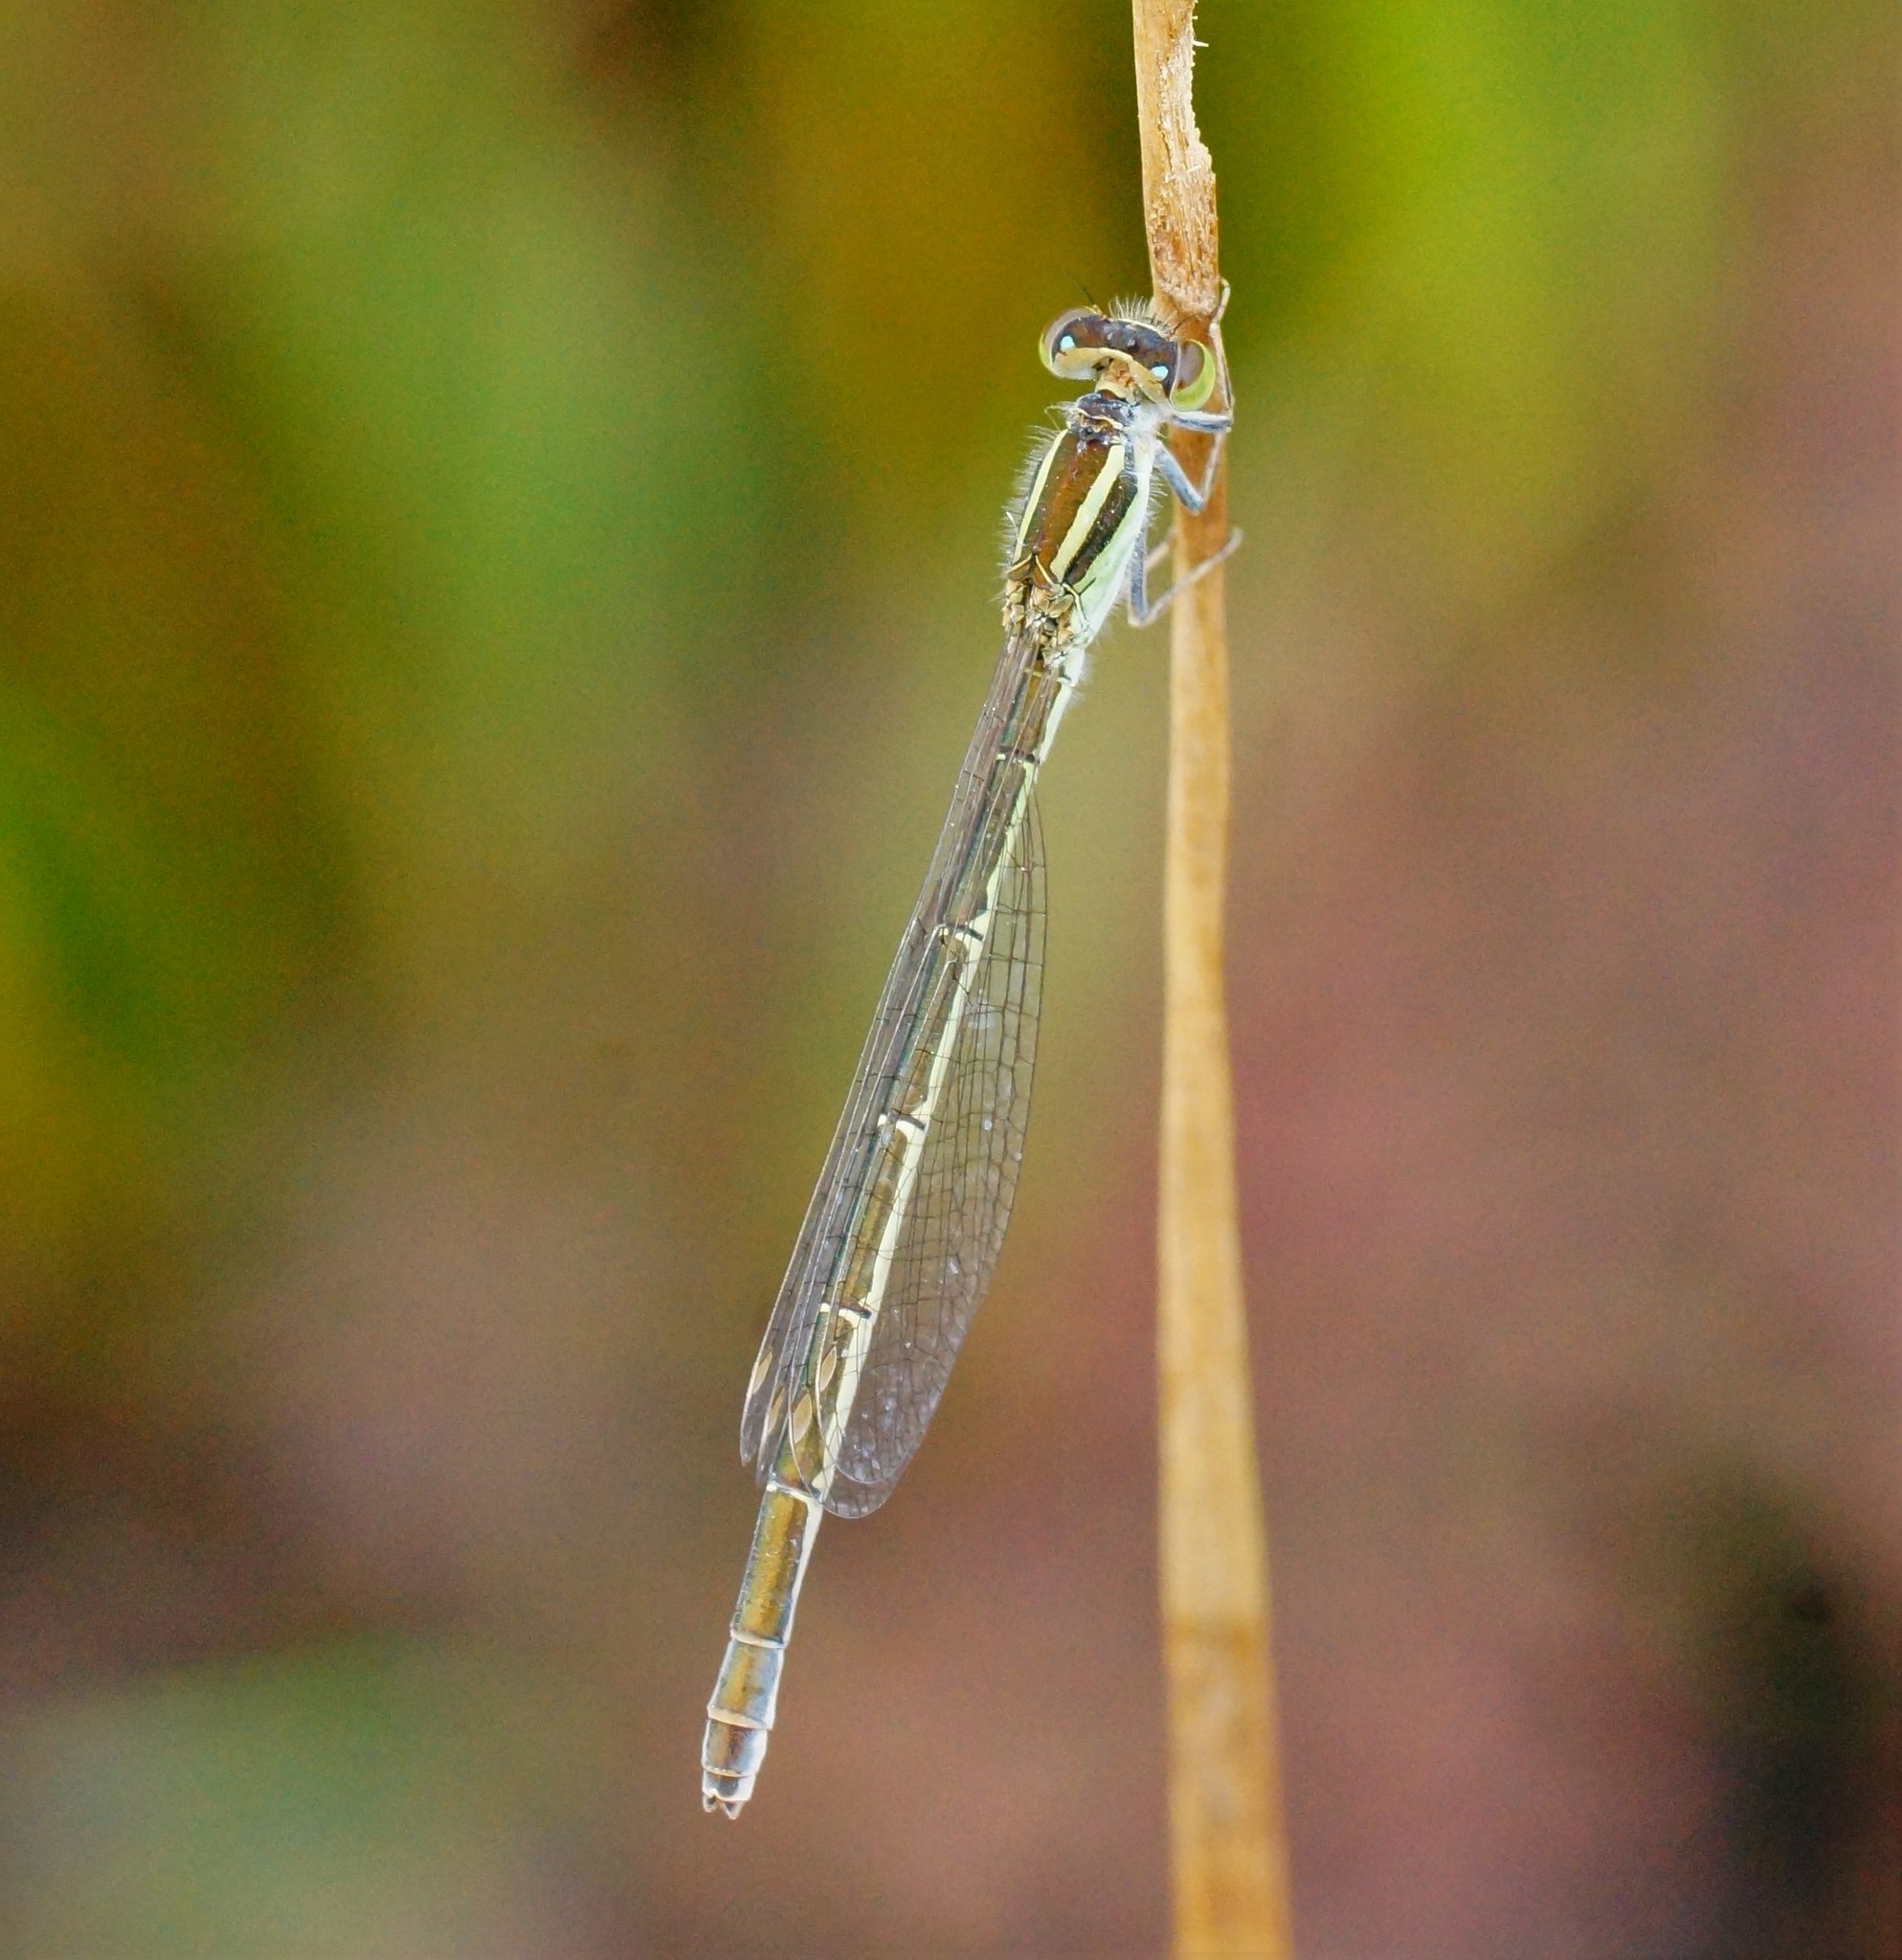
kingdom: Animalia
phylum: Arthropoda
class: Insecta
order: Odonata
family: Coenagrionidae
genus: Ischnura
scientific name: Ischnura aurora
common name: Gossamer damselfly
